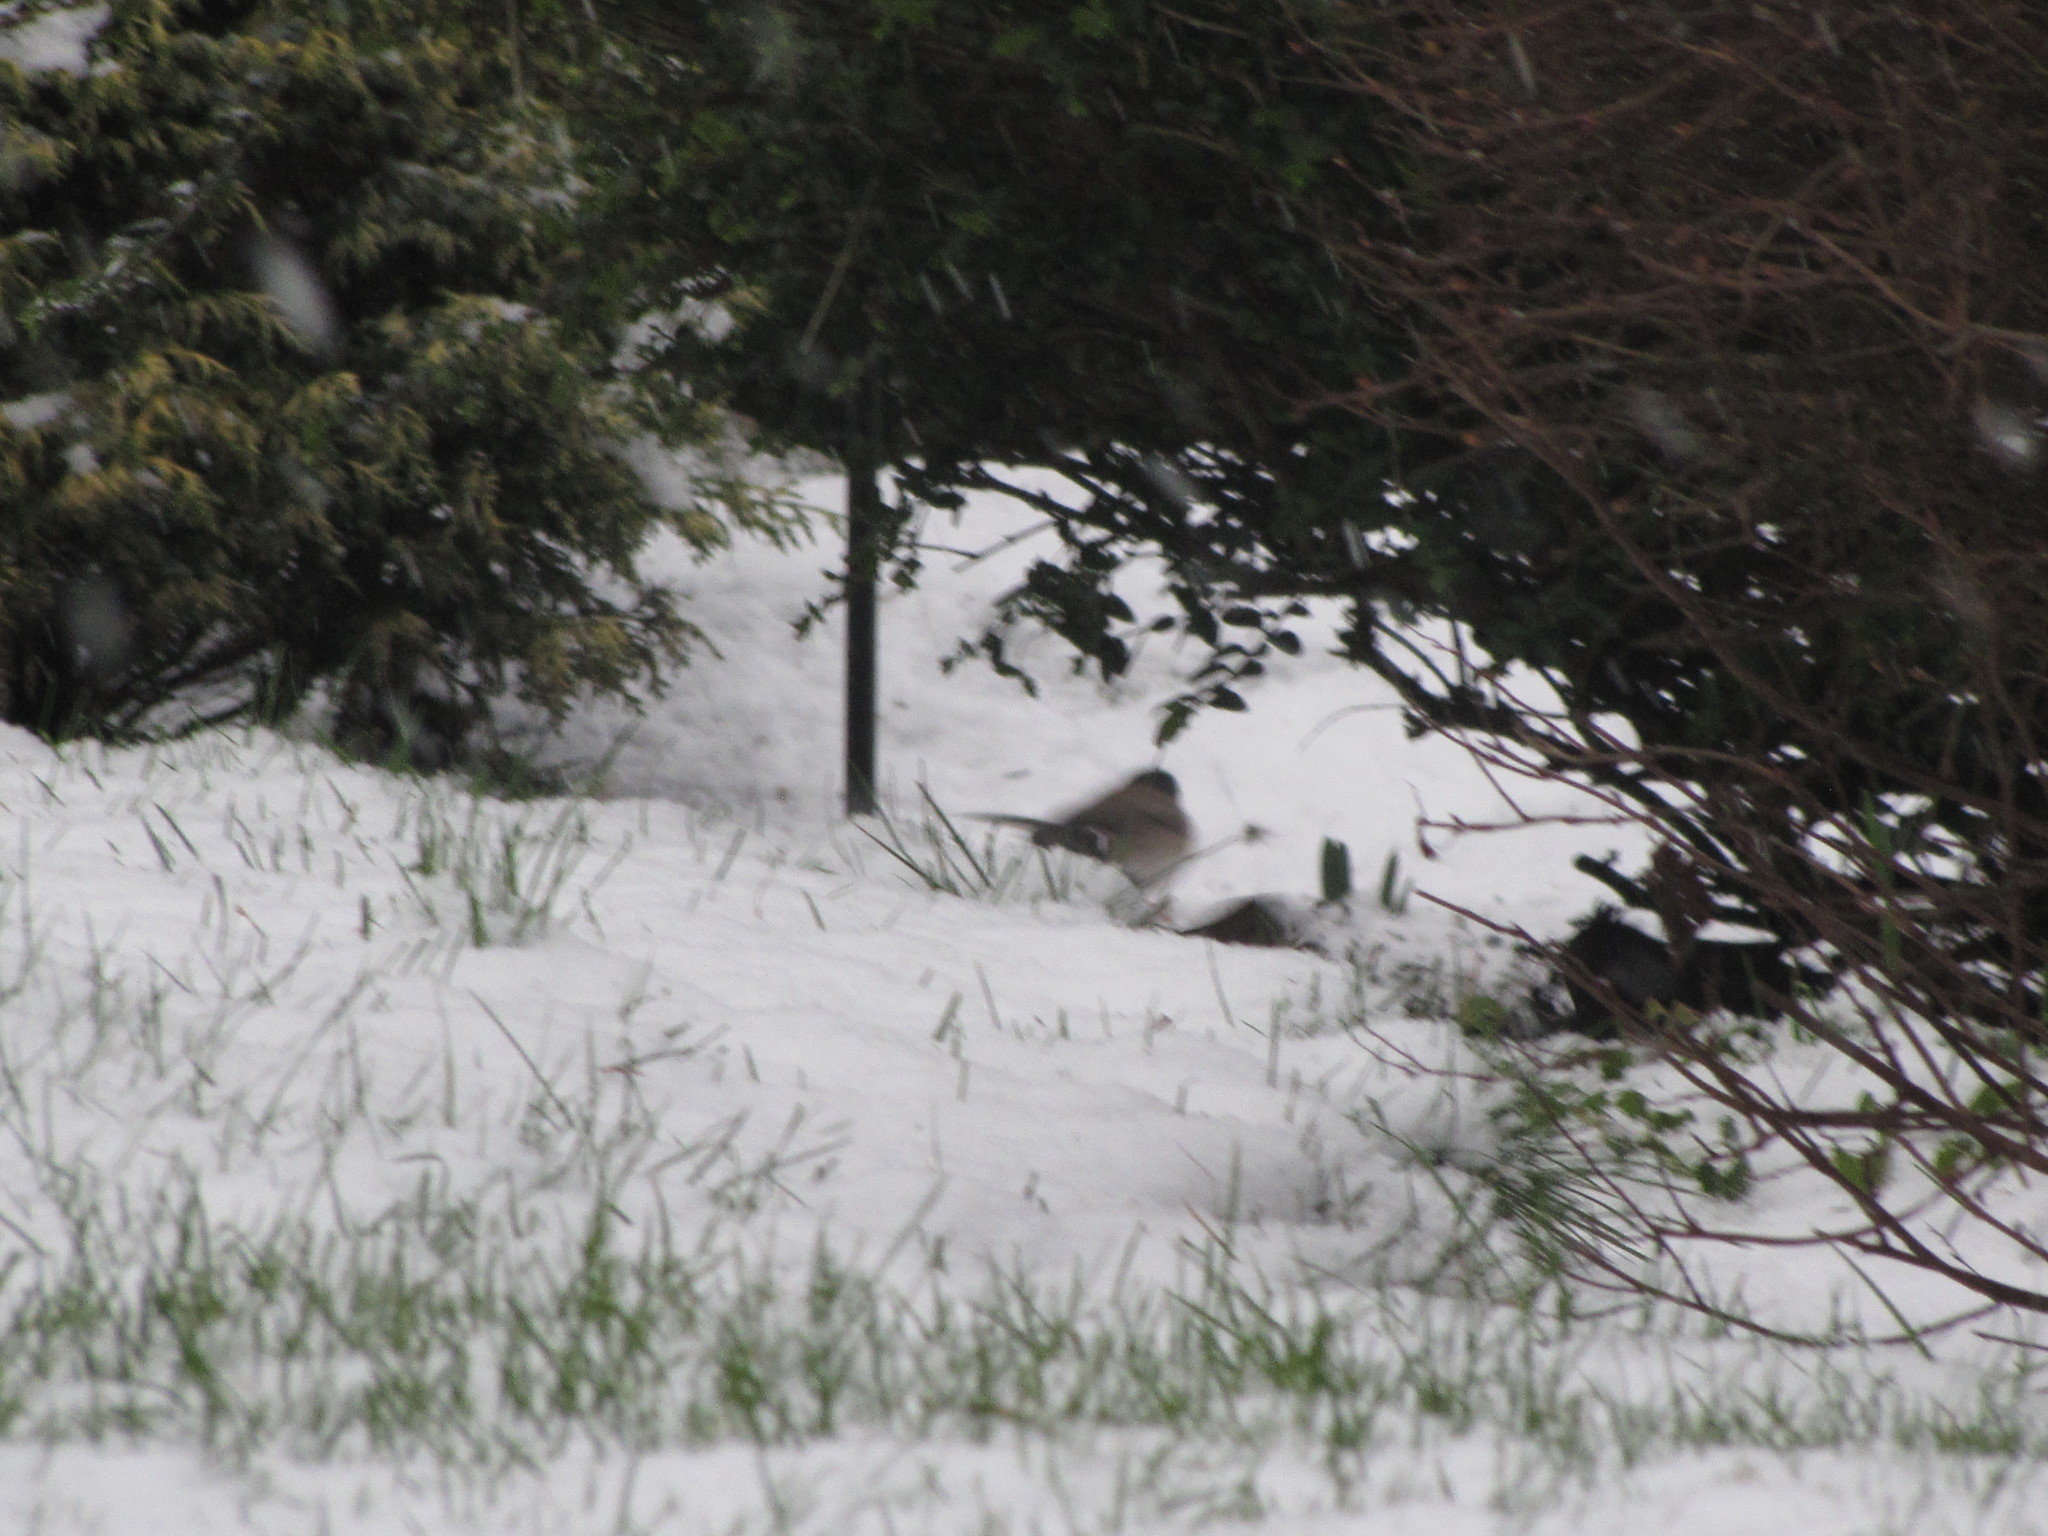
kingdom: Animalia
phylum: Chordata
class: Aves
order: Passeriformes
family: Passerellidae
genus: Junco
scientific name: Junco hyemalis
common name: Dark-eyed junco
